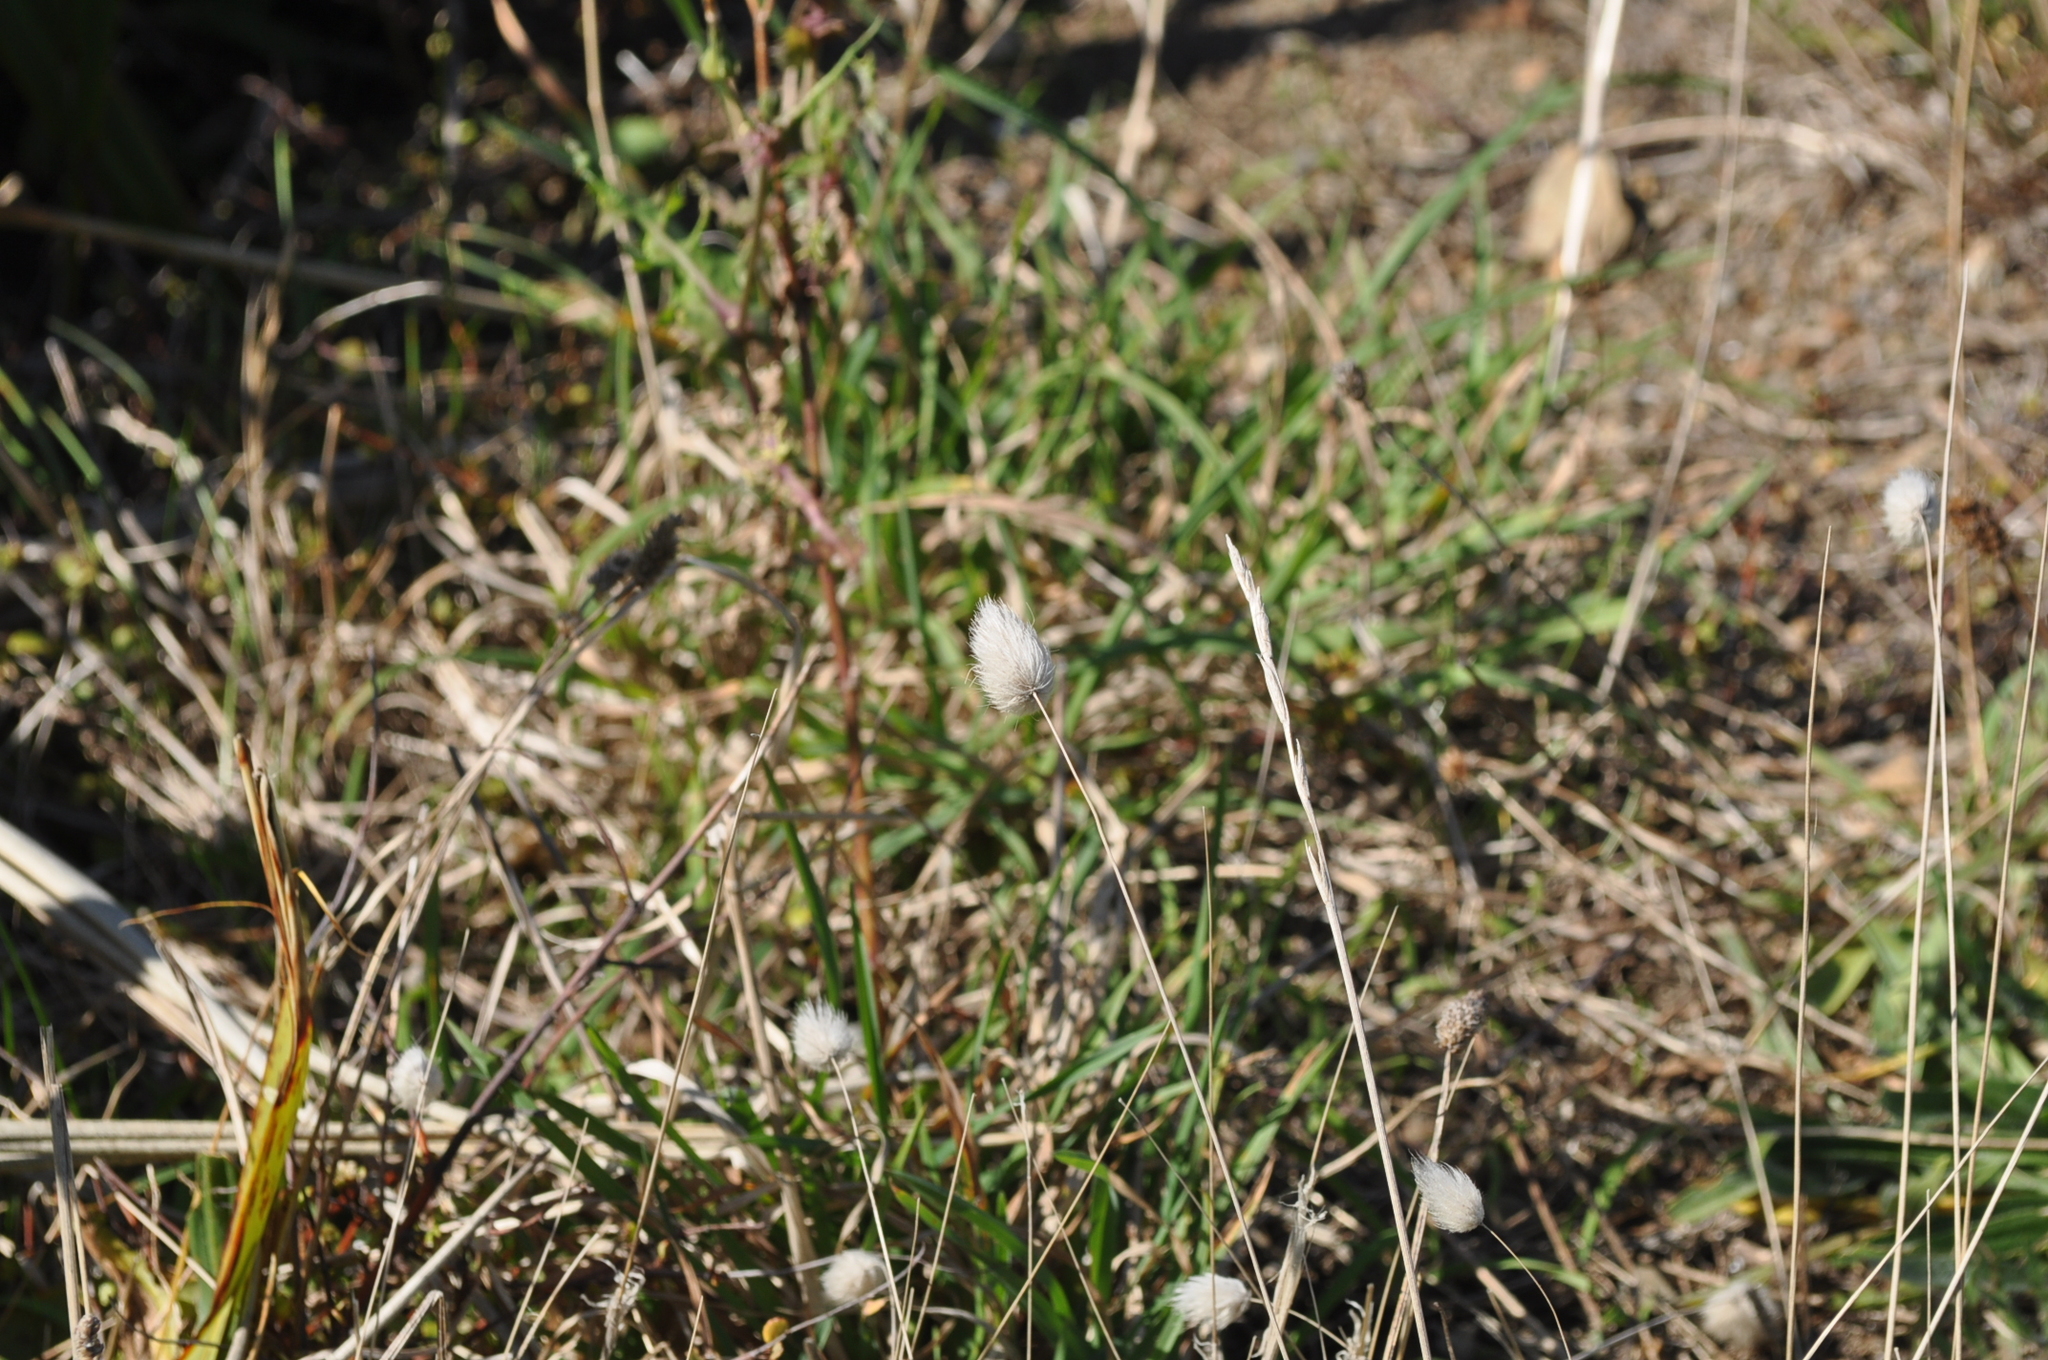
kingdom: Plantae
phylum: Tracheophyta
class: Liliopsida
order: Poales
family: Poaceae
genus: Lagurus
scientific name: Lagurus ovatus
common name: Hare's-tail
